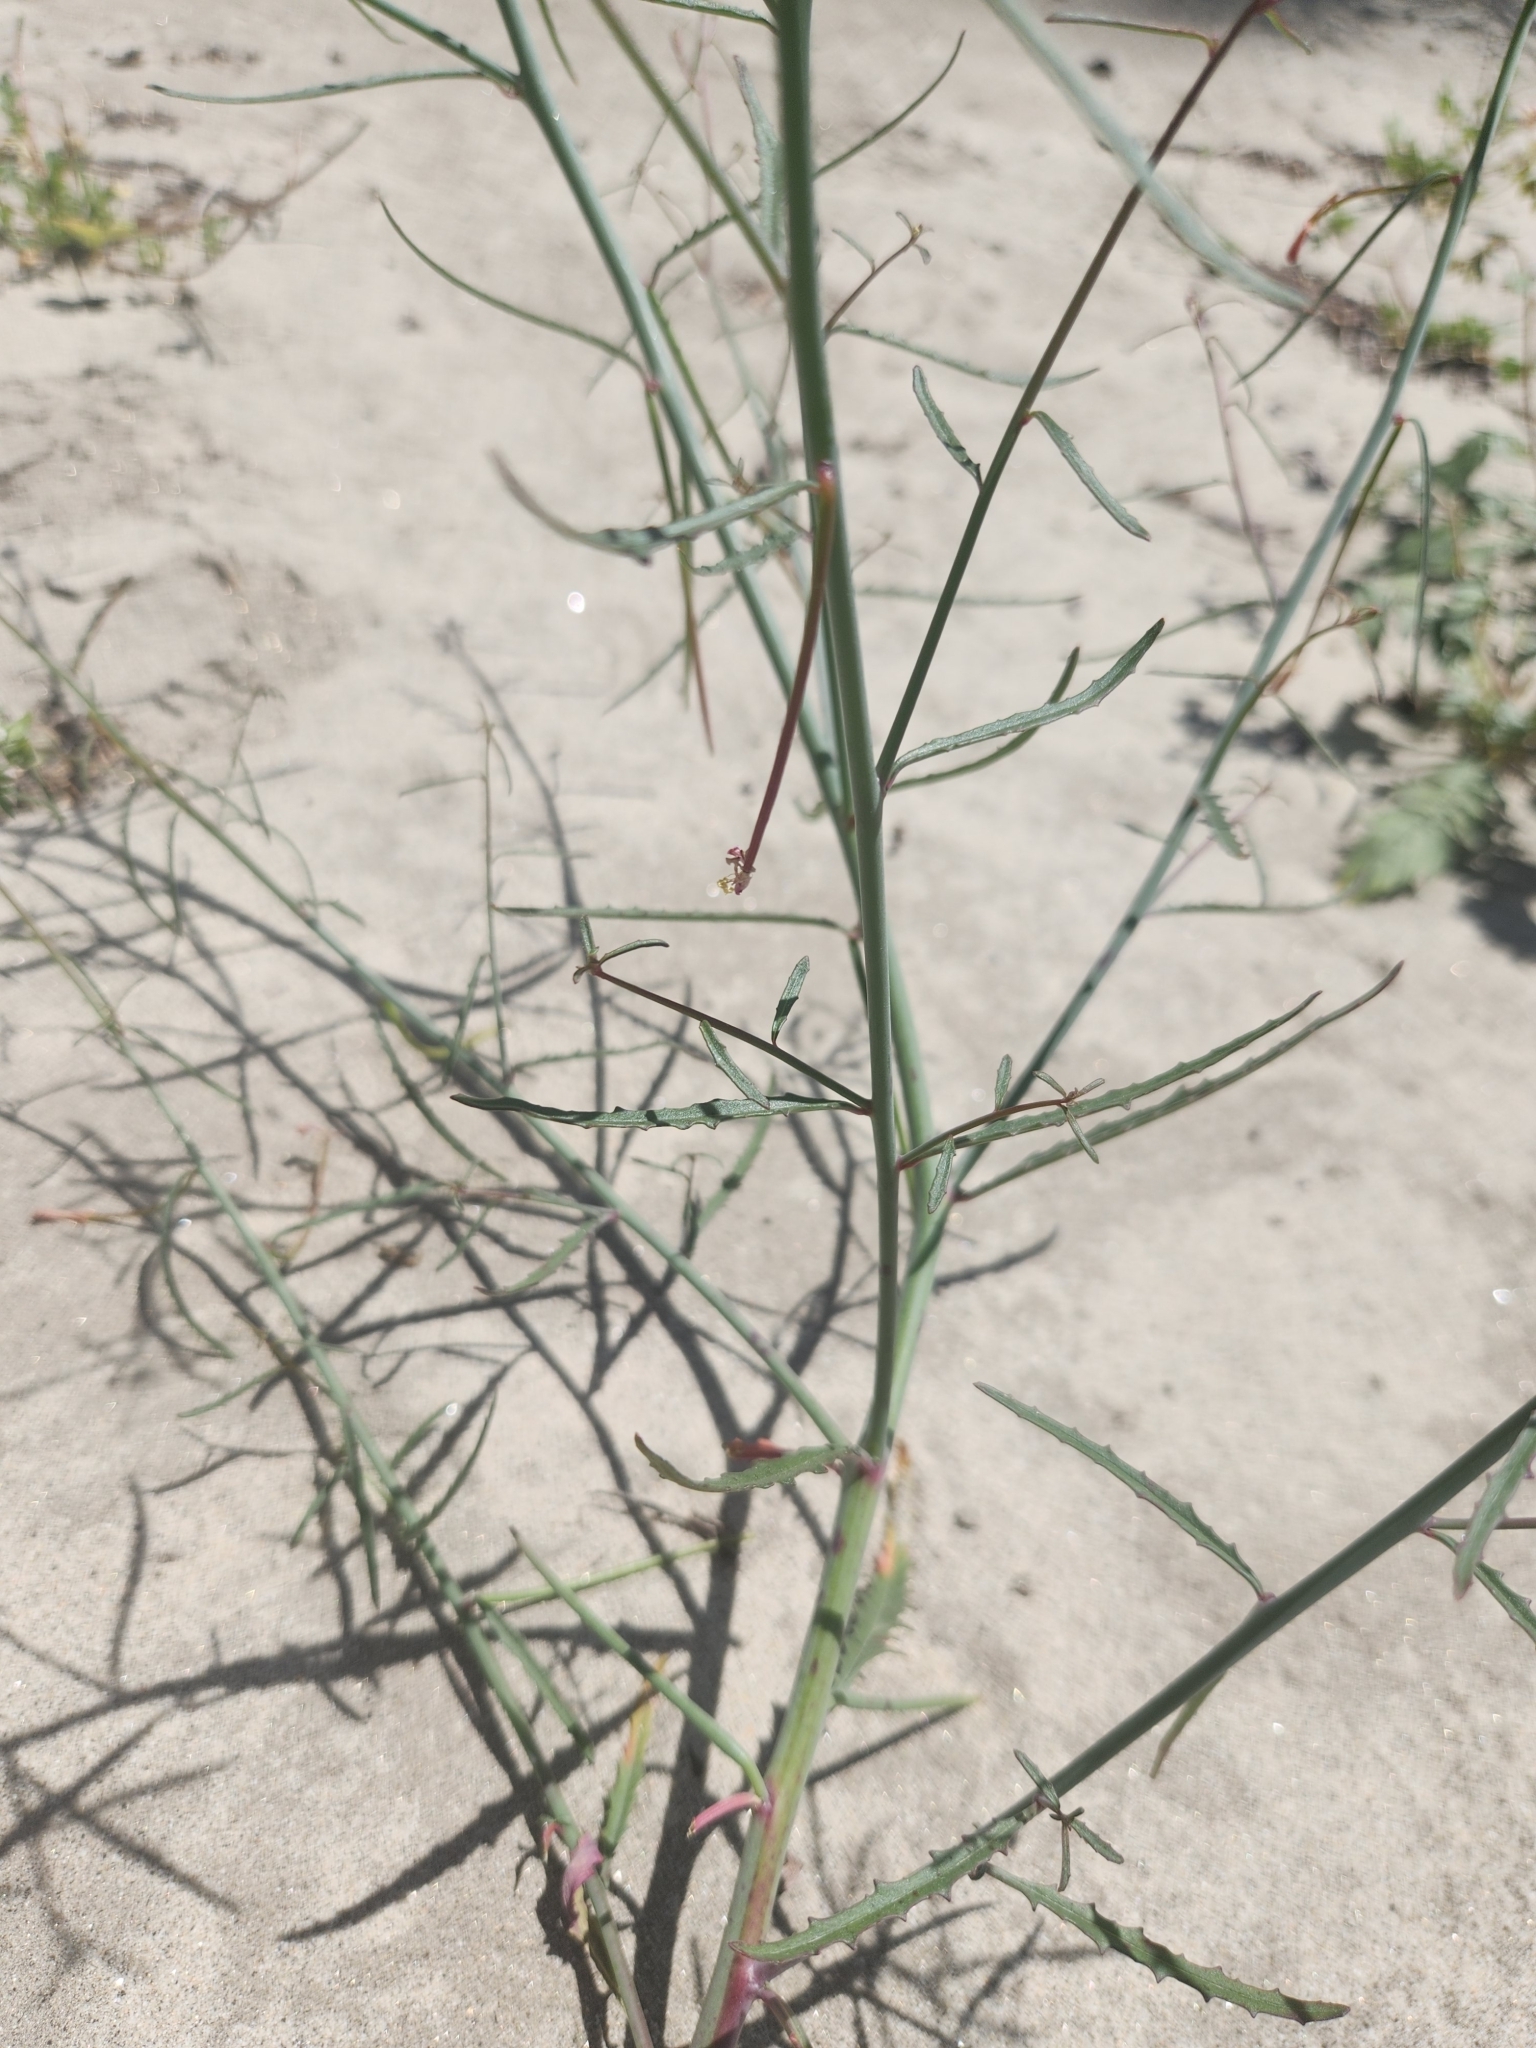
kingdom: Plantae
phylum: Tracheophyta
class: Magnoliopsida
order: Myrtales
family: Onagraceae
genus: Eulobus
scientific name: Eulobus californicus
